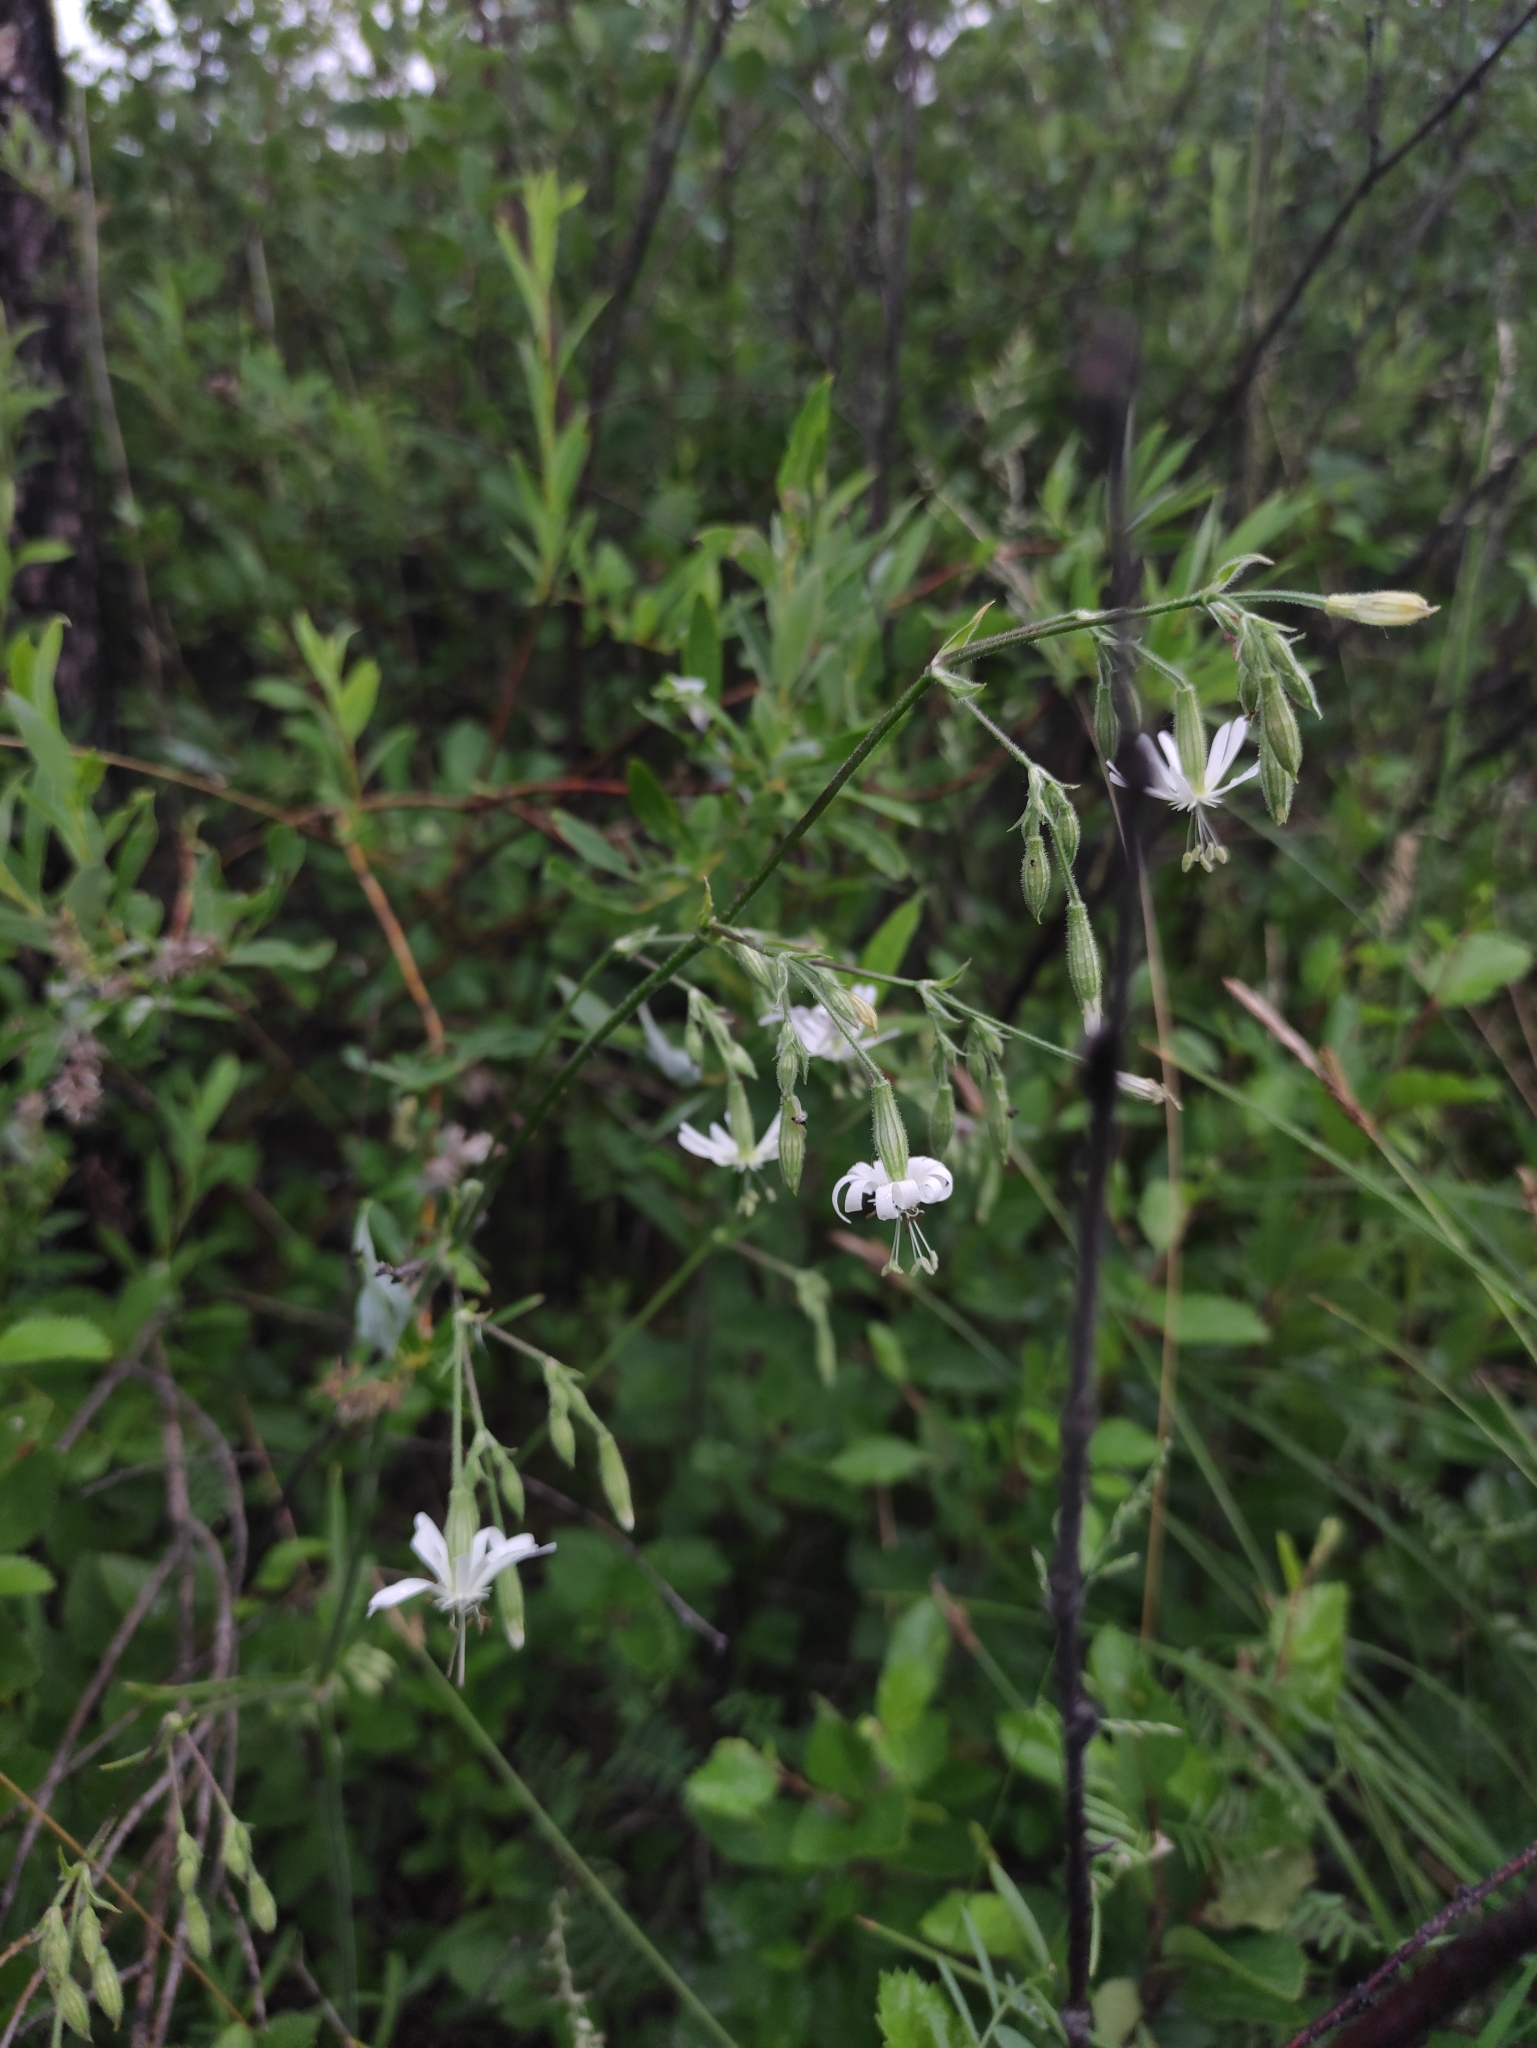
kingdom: Plantae
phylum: Tracheophyta
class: Magnoliopsida
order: Caryophyllales
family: Caryophyllaceae
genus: Silene
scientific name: Silene nutans
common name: Nottingham catchfly
